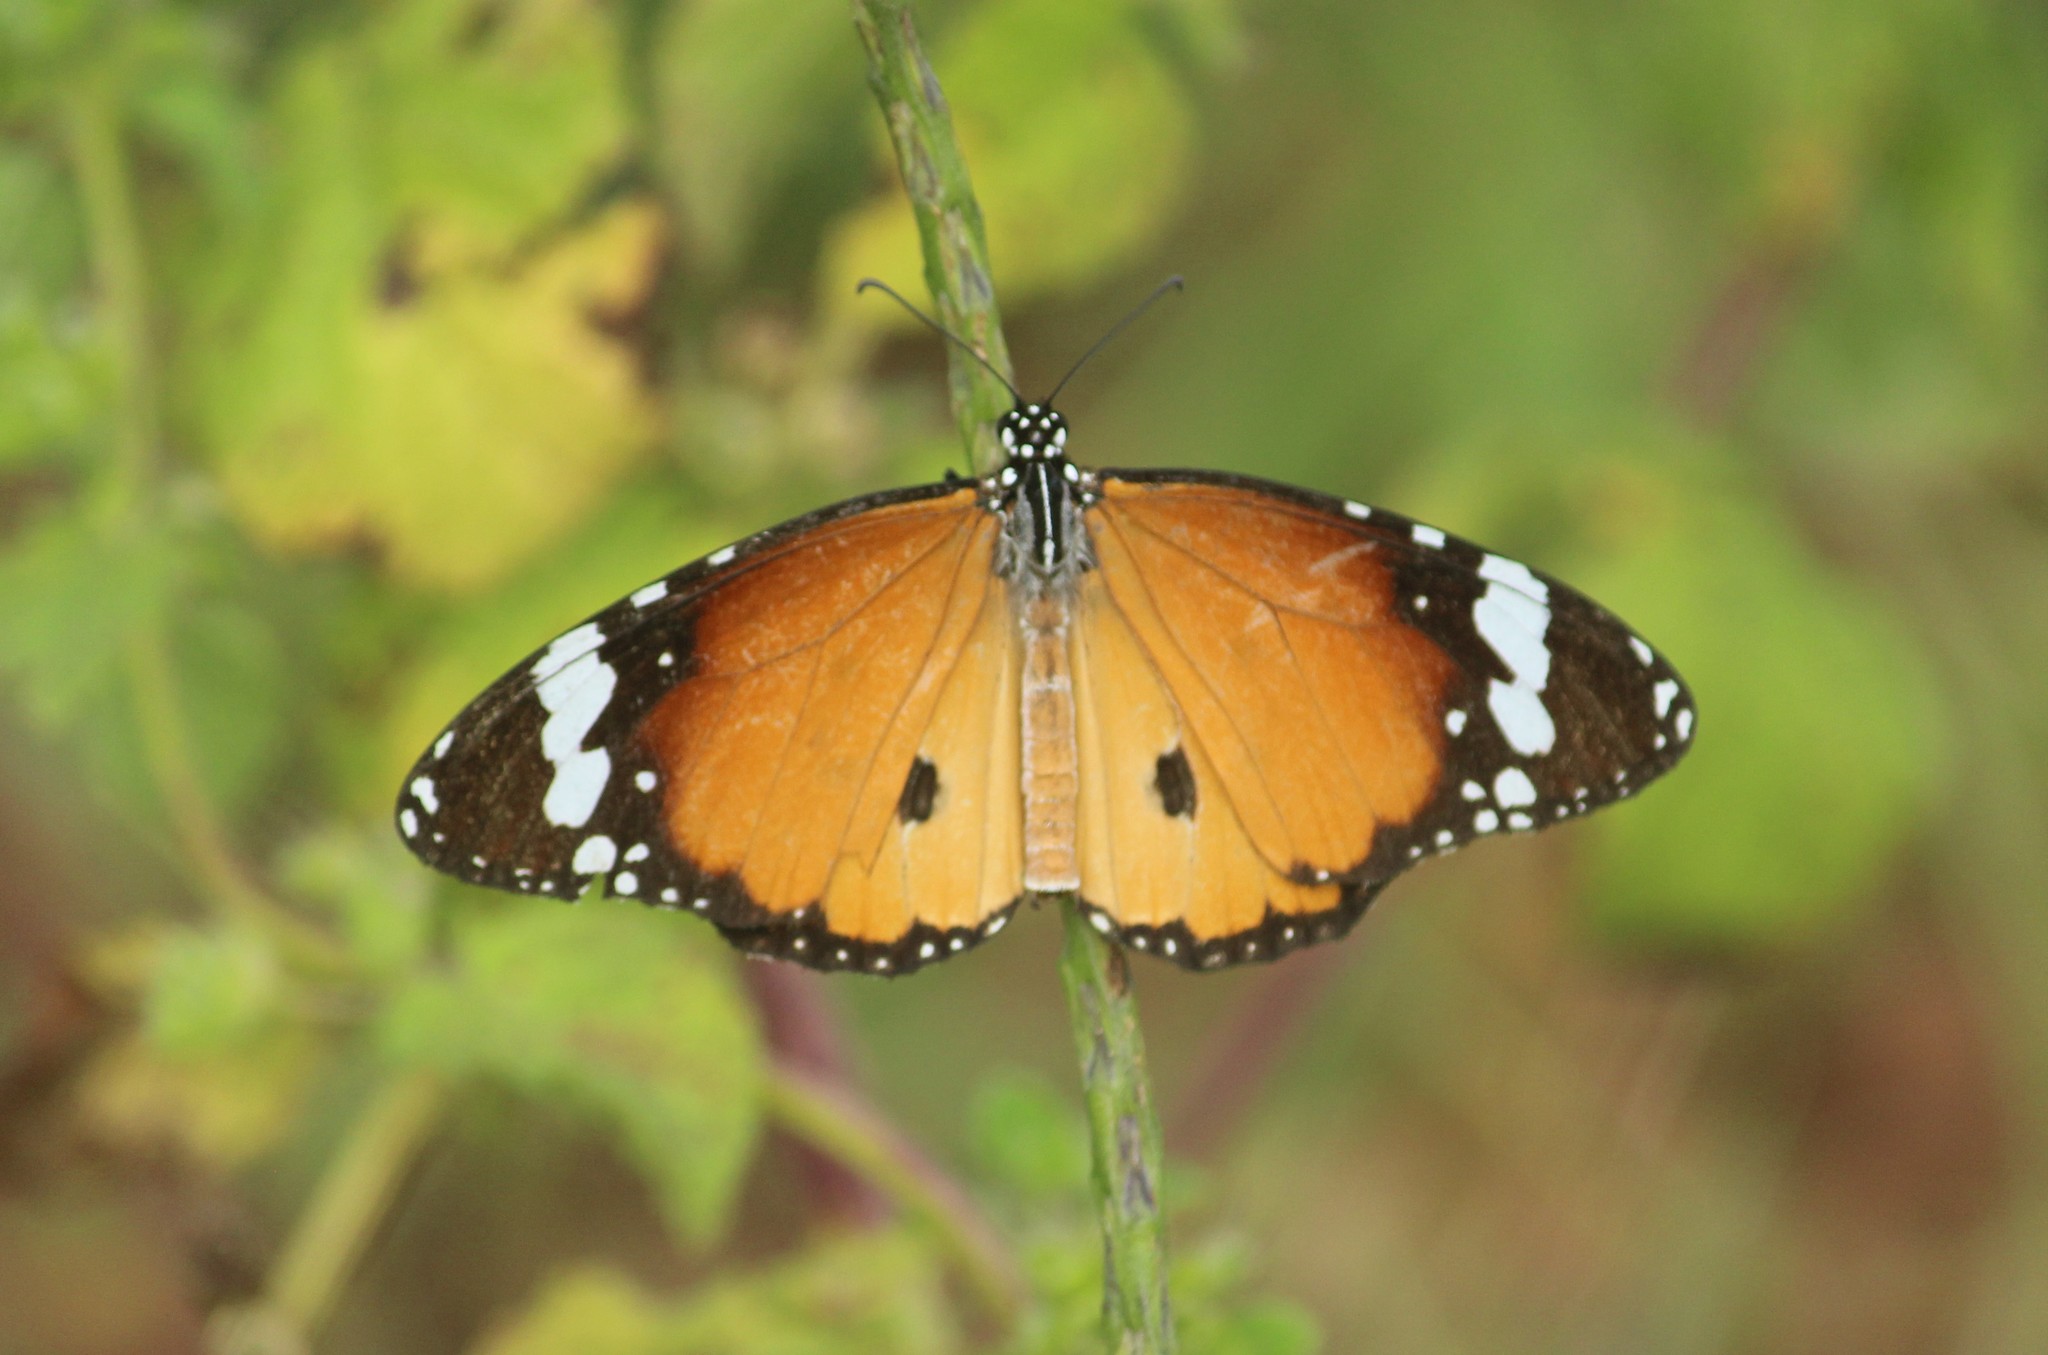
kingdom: Animalia
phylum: Arthropoda
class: Insecta
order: Lepidoptera
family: Nymphalidae
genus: Danaus
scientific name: Danaus chrysippus
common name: Plain tiger
